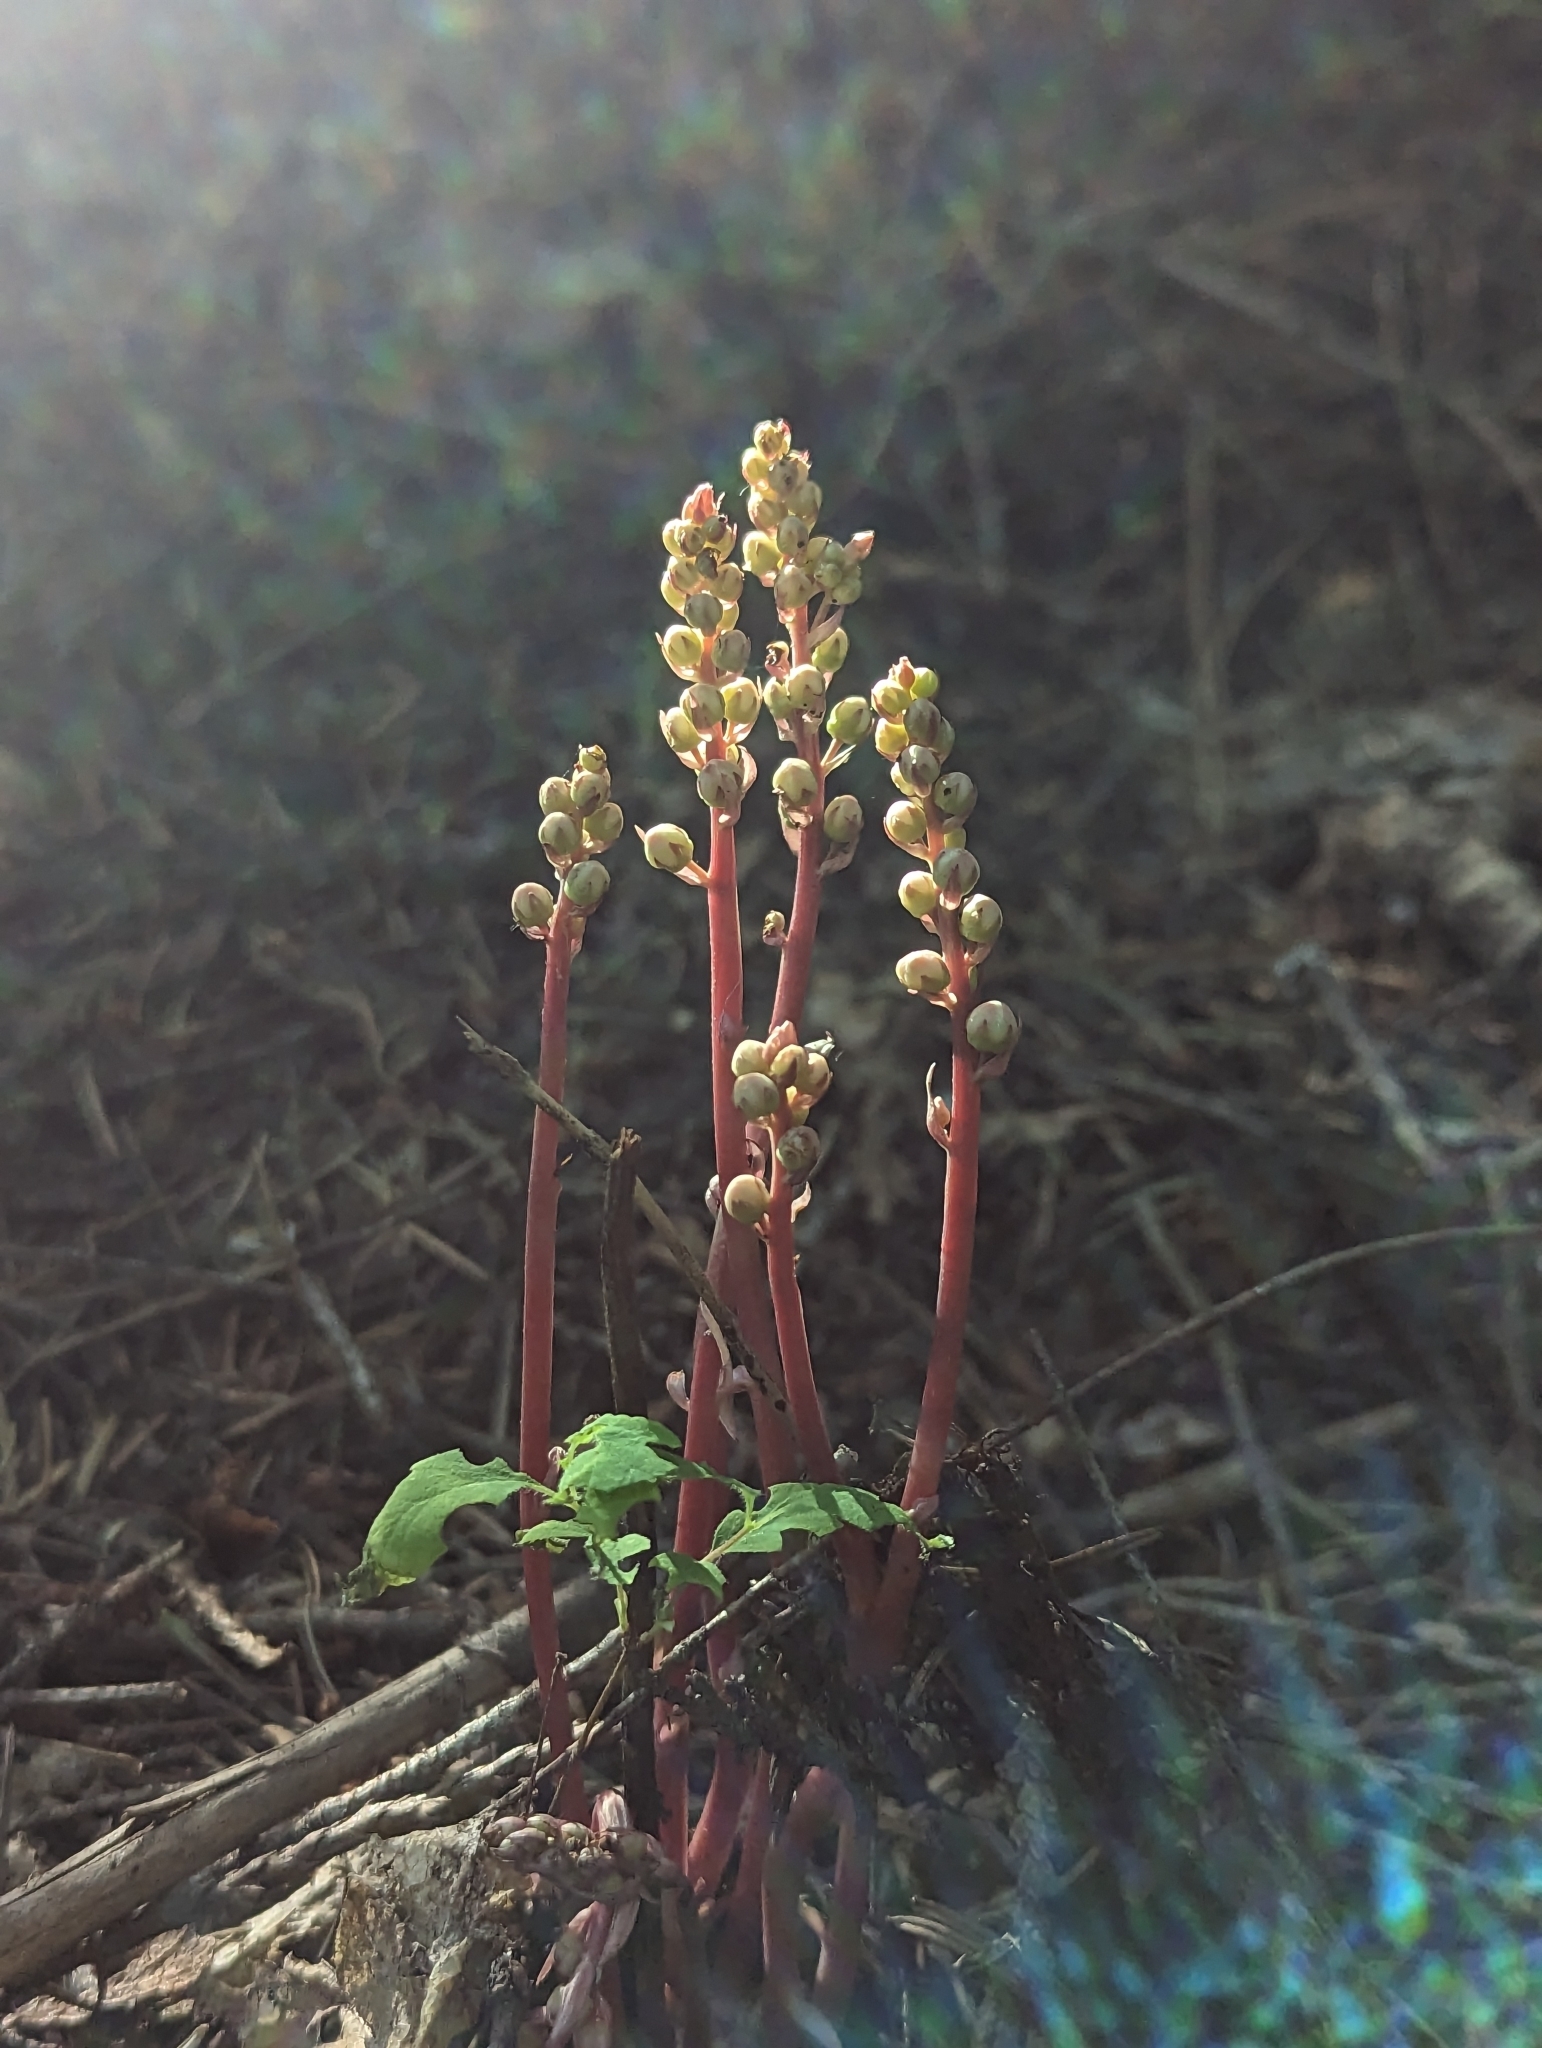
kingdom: Plantae
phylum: Tracheophyta
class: Magnoliopsida
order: Ericales
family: Ericaceae
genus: Pyrola
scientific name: Pyrola aphylla
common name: Leafless wintergreen
